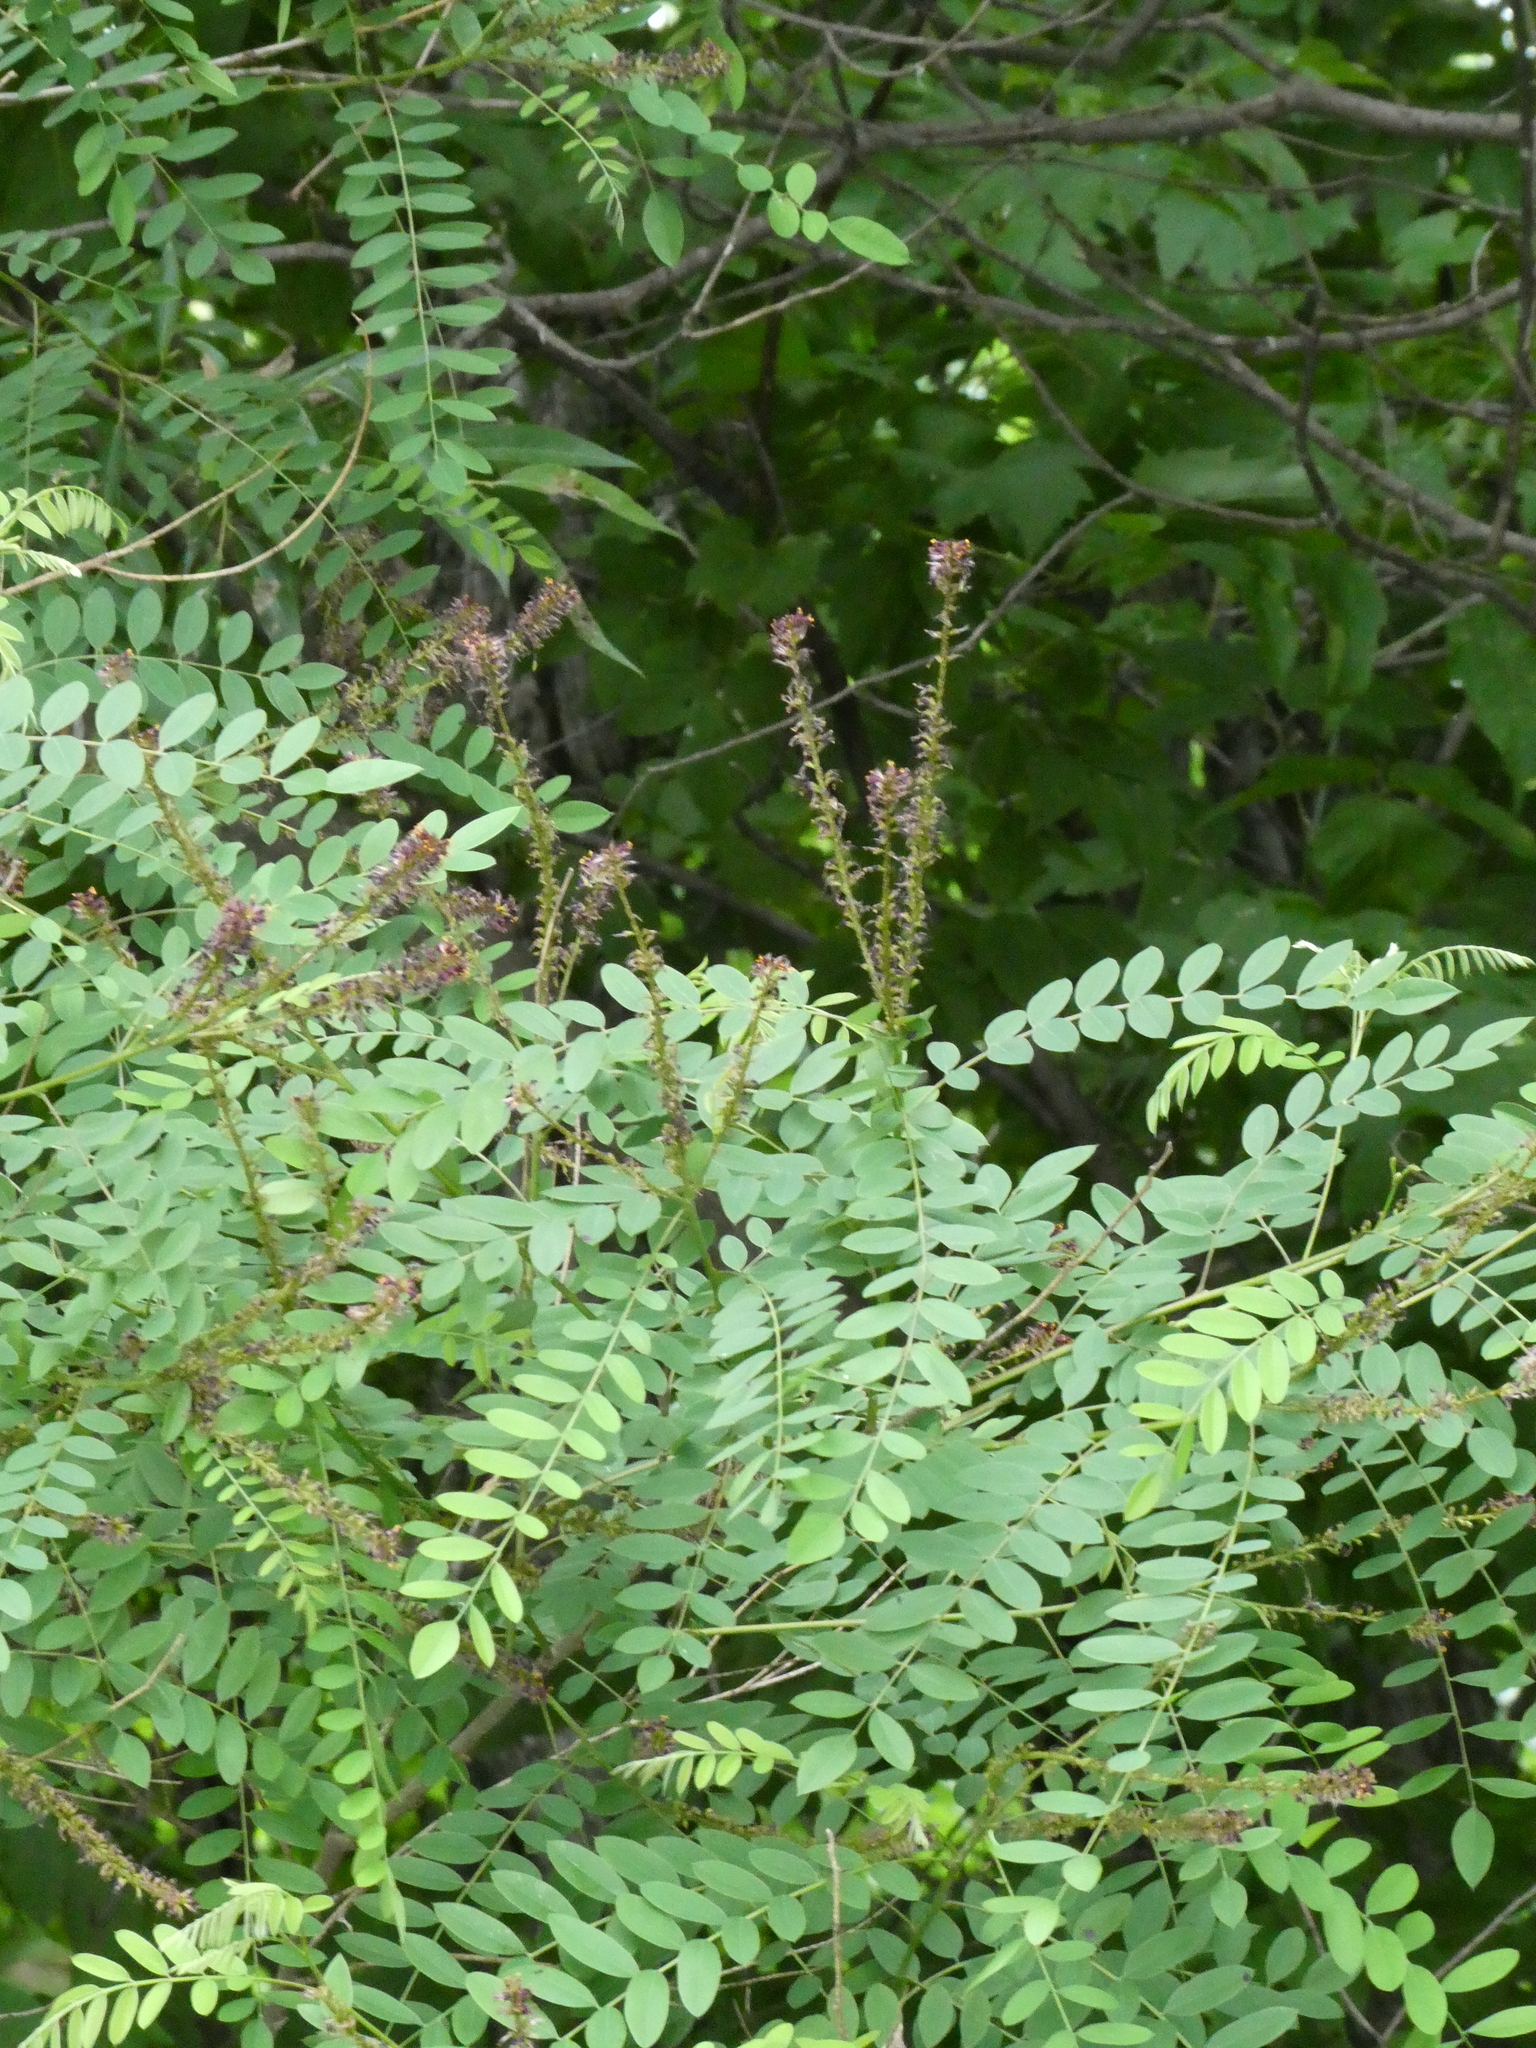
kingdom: Plantae
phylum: Tracheophyta
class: Magnoliopsida
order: Fabales
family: Fabaceae
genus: Amorpha
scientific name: Amorpha fruticosa
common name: False indigo
